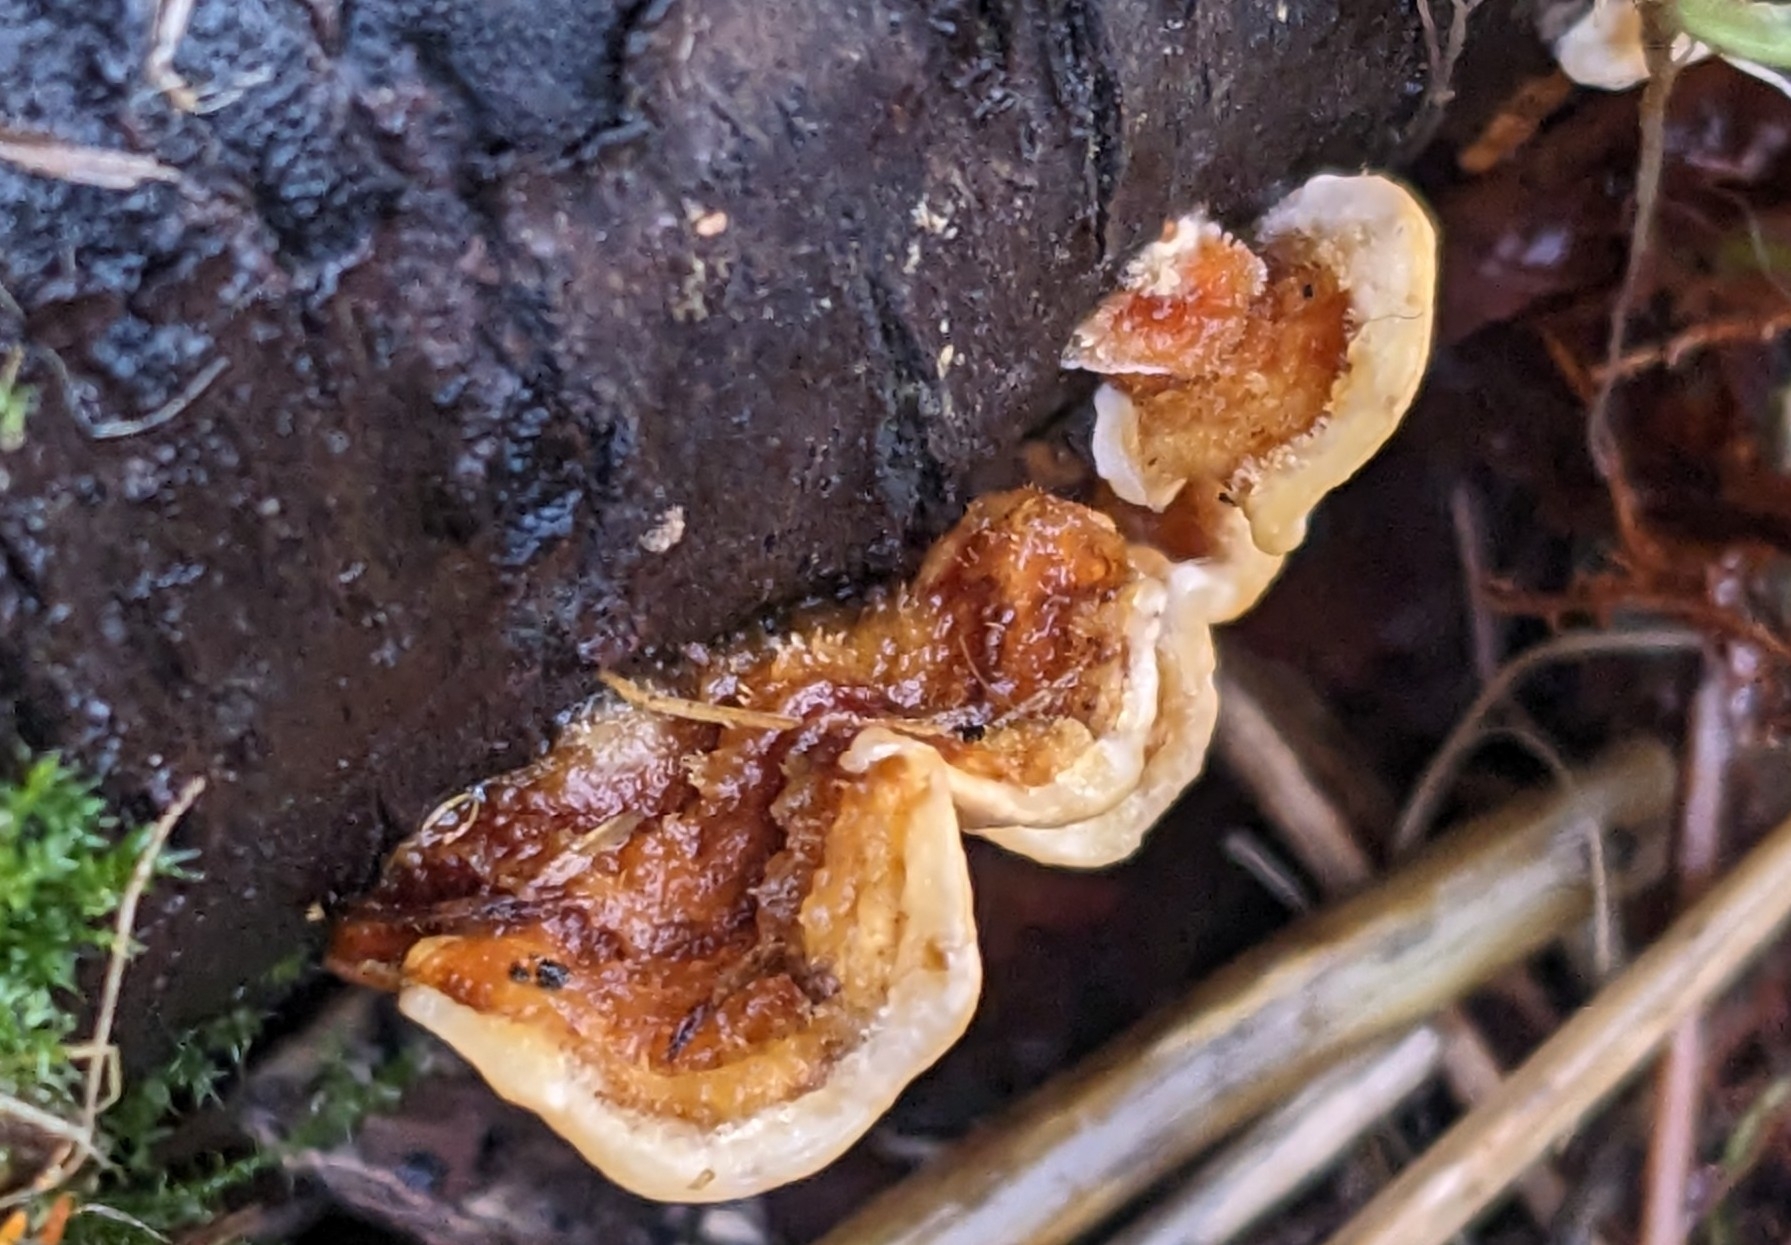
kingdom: Fungi
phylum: Basidiomycota
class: Agaricomycetes
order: Russulales
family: Stereaceae
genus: Stereum
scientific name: Stereum hirsutum
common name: Hairy curtain crust
